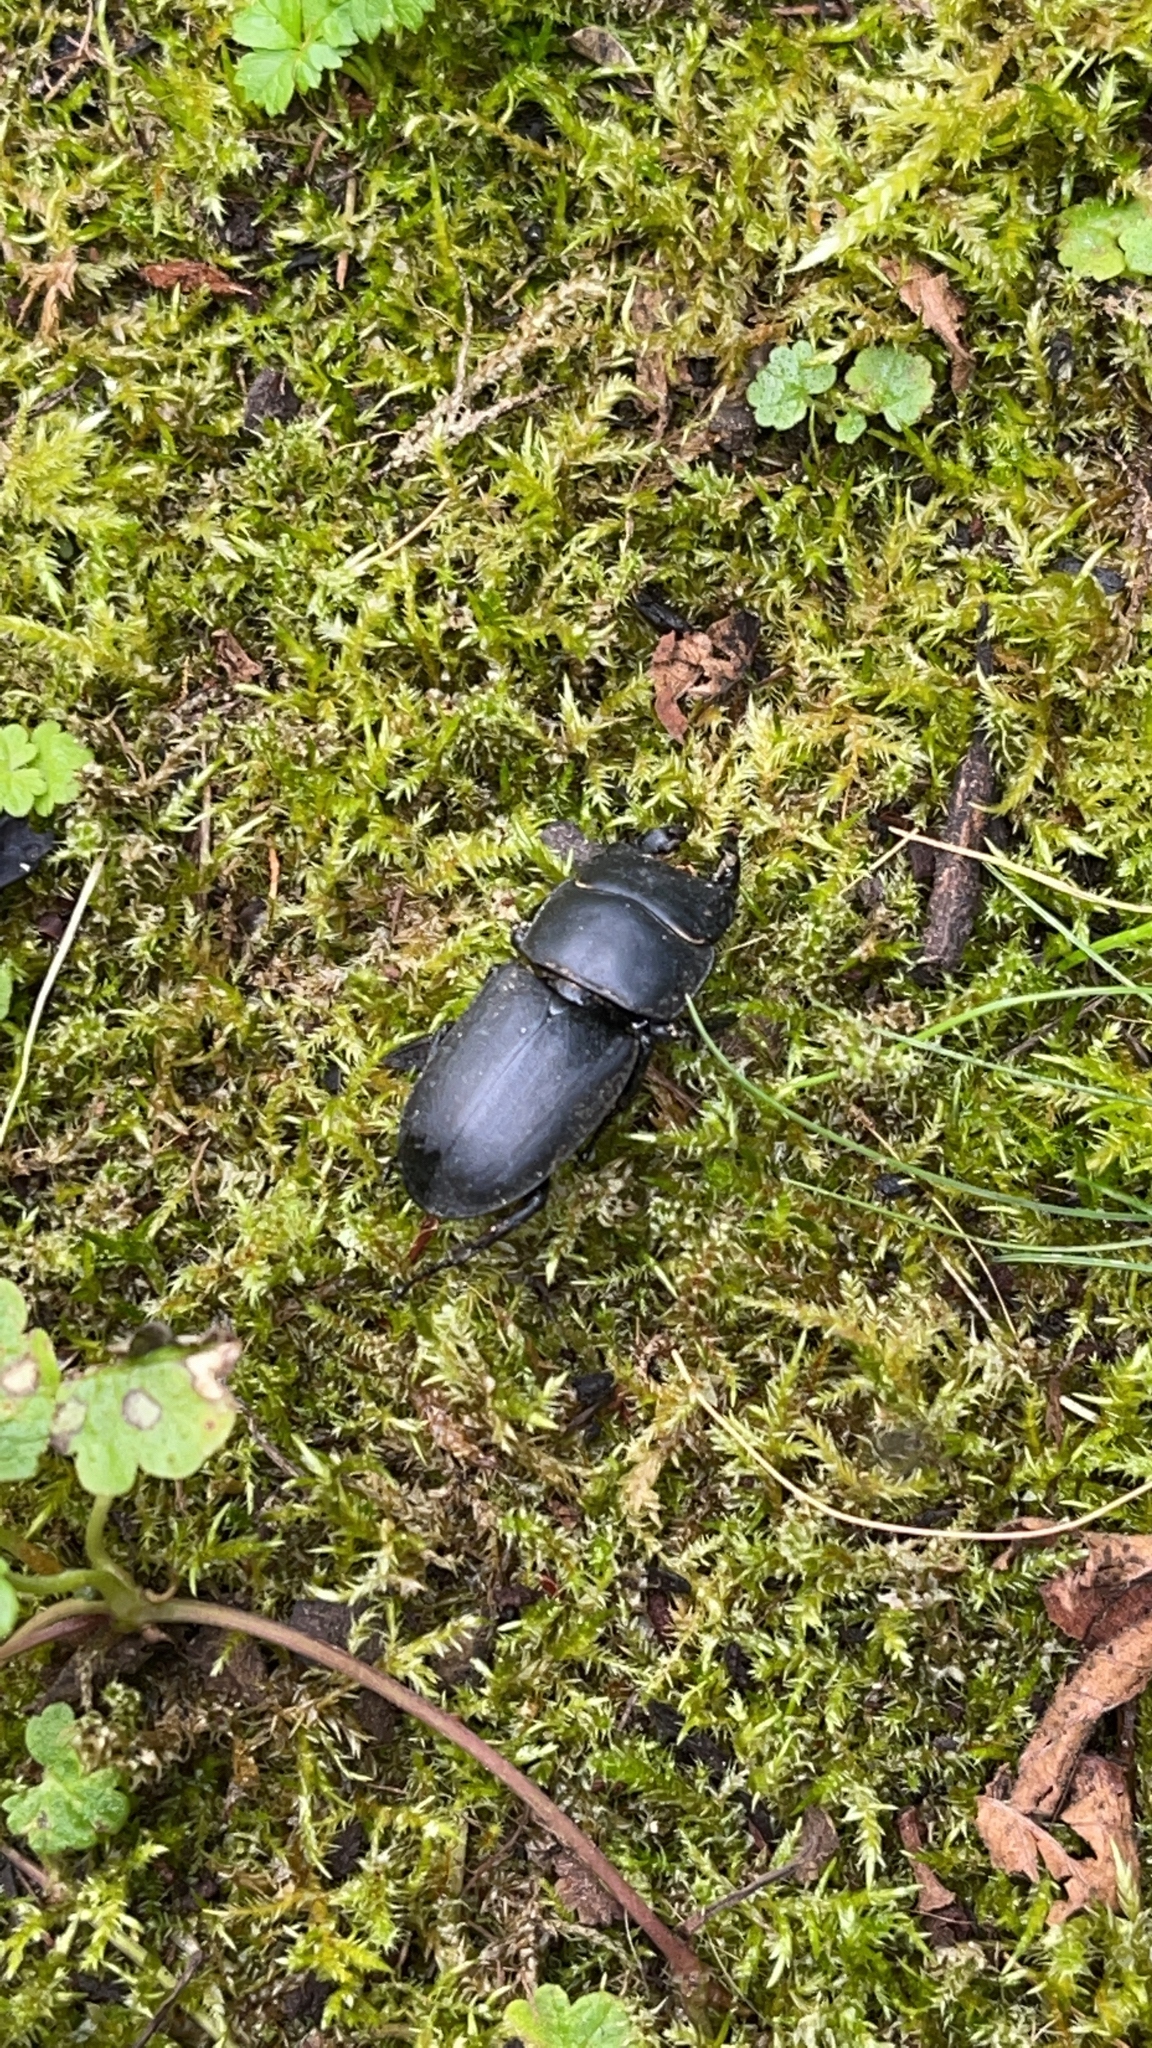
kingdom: Animalia
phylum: Arthropoda
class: Insecta
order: Coleoptera
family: Lucanidae
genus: Dorcus
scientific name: Dorcus parallelipipedus
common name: Lesser stag beetle
